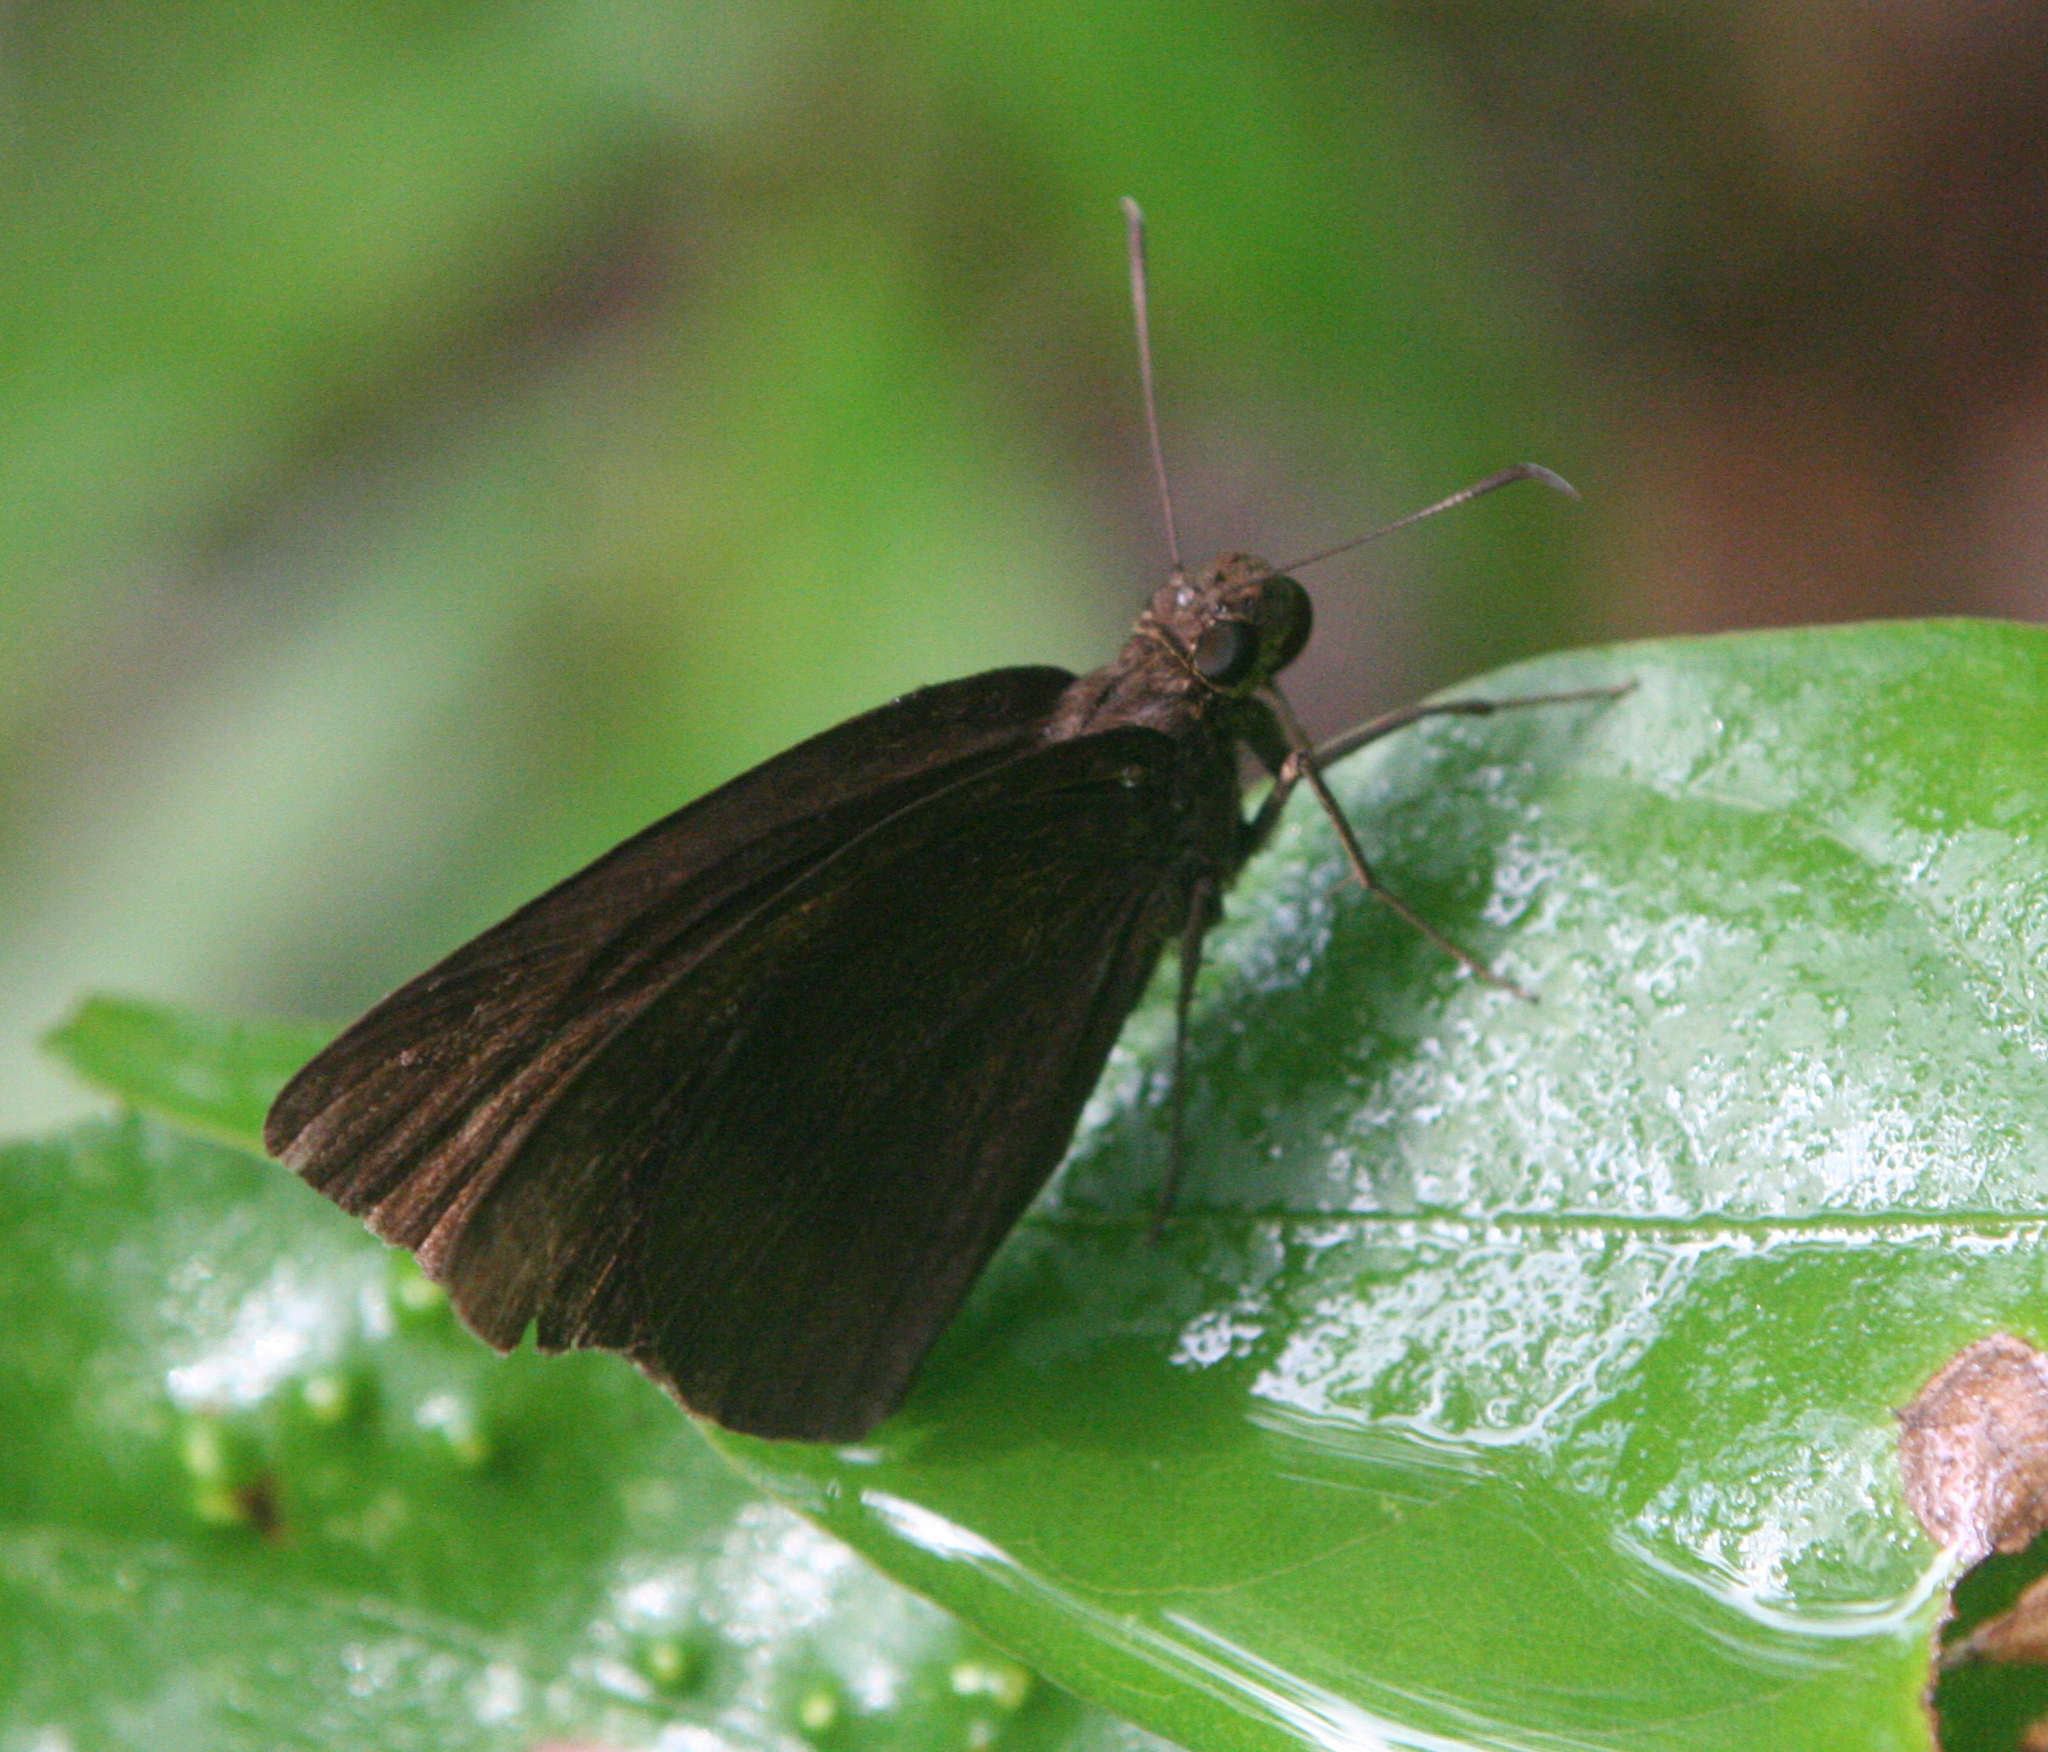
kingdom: Animalia
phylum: Arthropoda
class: Insecta
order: Lepidoptera
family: Hesperiidae
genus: Ancistroides
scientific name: Ancistroides nigrita
